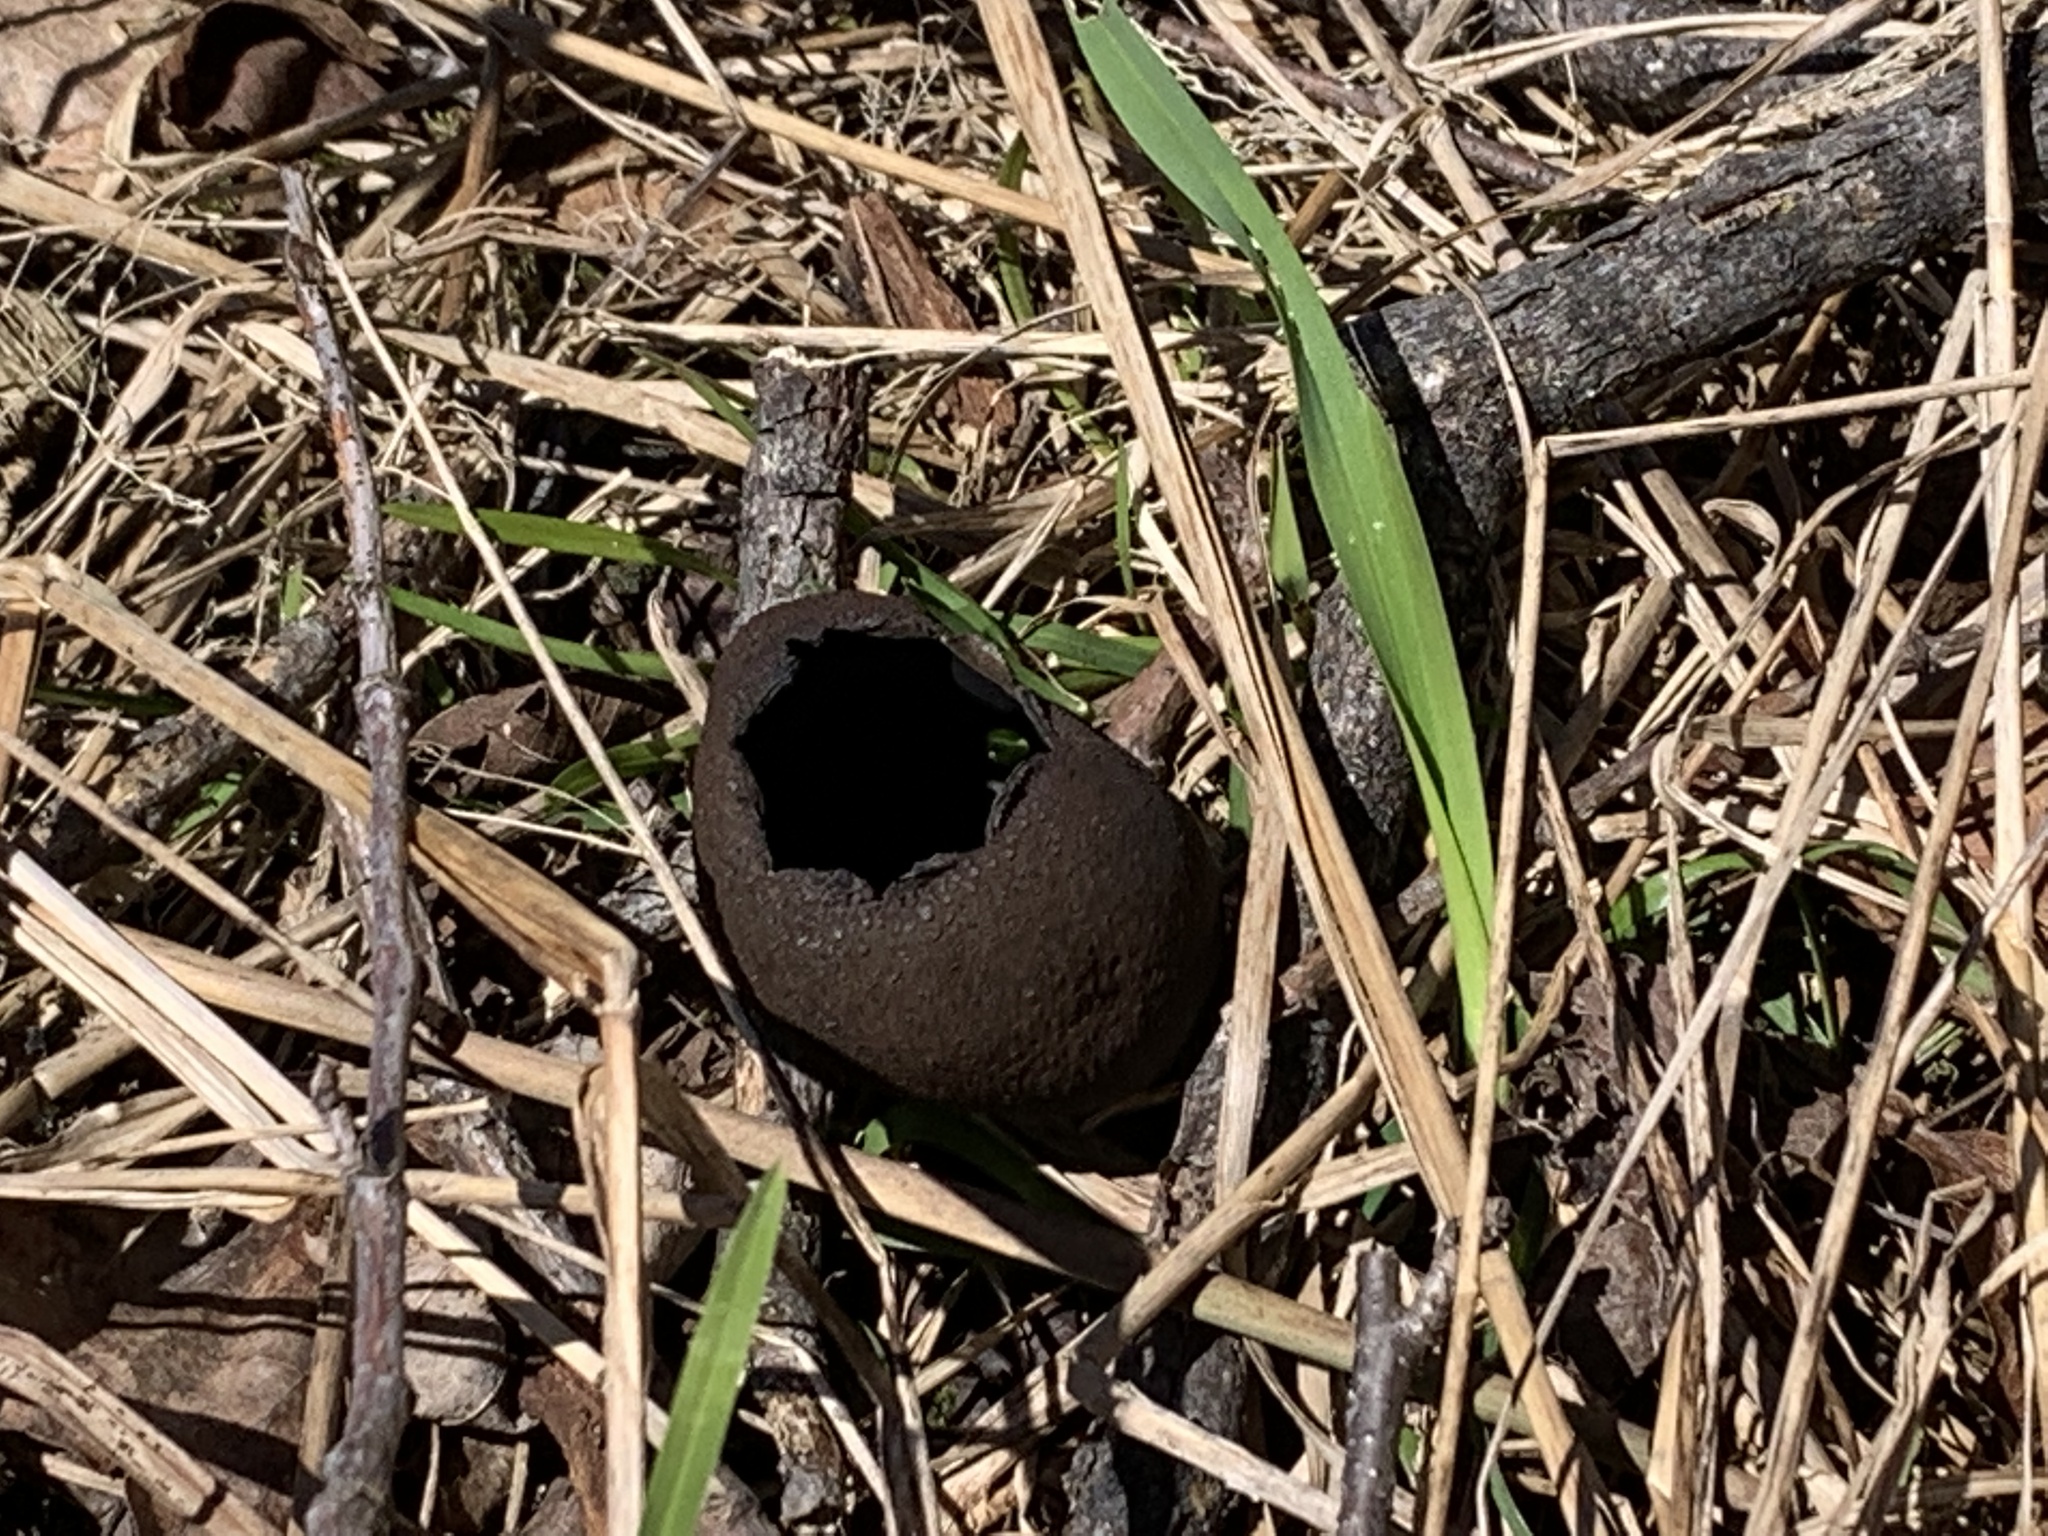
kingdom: Fungi
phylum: Ascomycota
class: Pezizomycetes
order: Pezizales
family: Sarcosomataceae
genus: Urnula
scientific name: Urnula craterium
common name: Devil's urn
